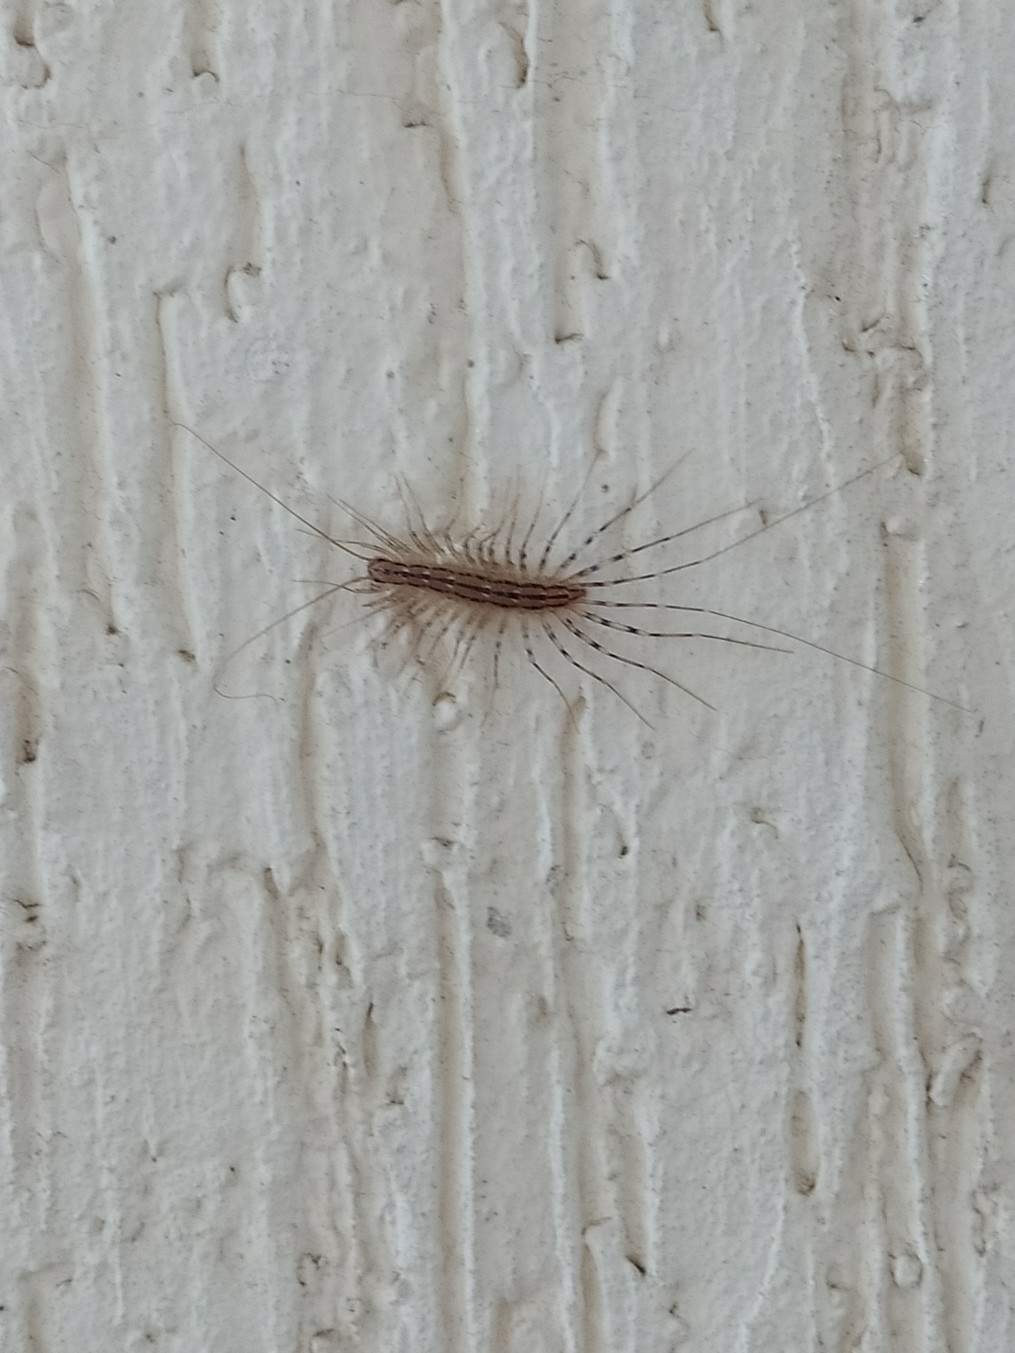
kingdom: Animalia
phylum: Arthropoda
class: Chilopoda
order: Scutigeromorpha
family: Scutigeridae
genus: Scutigera
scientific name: Scutigera coleoptrata
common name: House centipede
